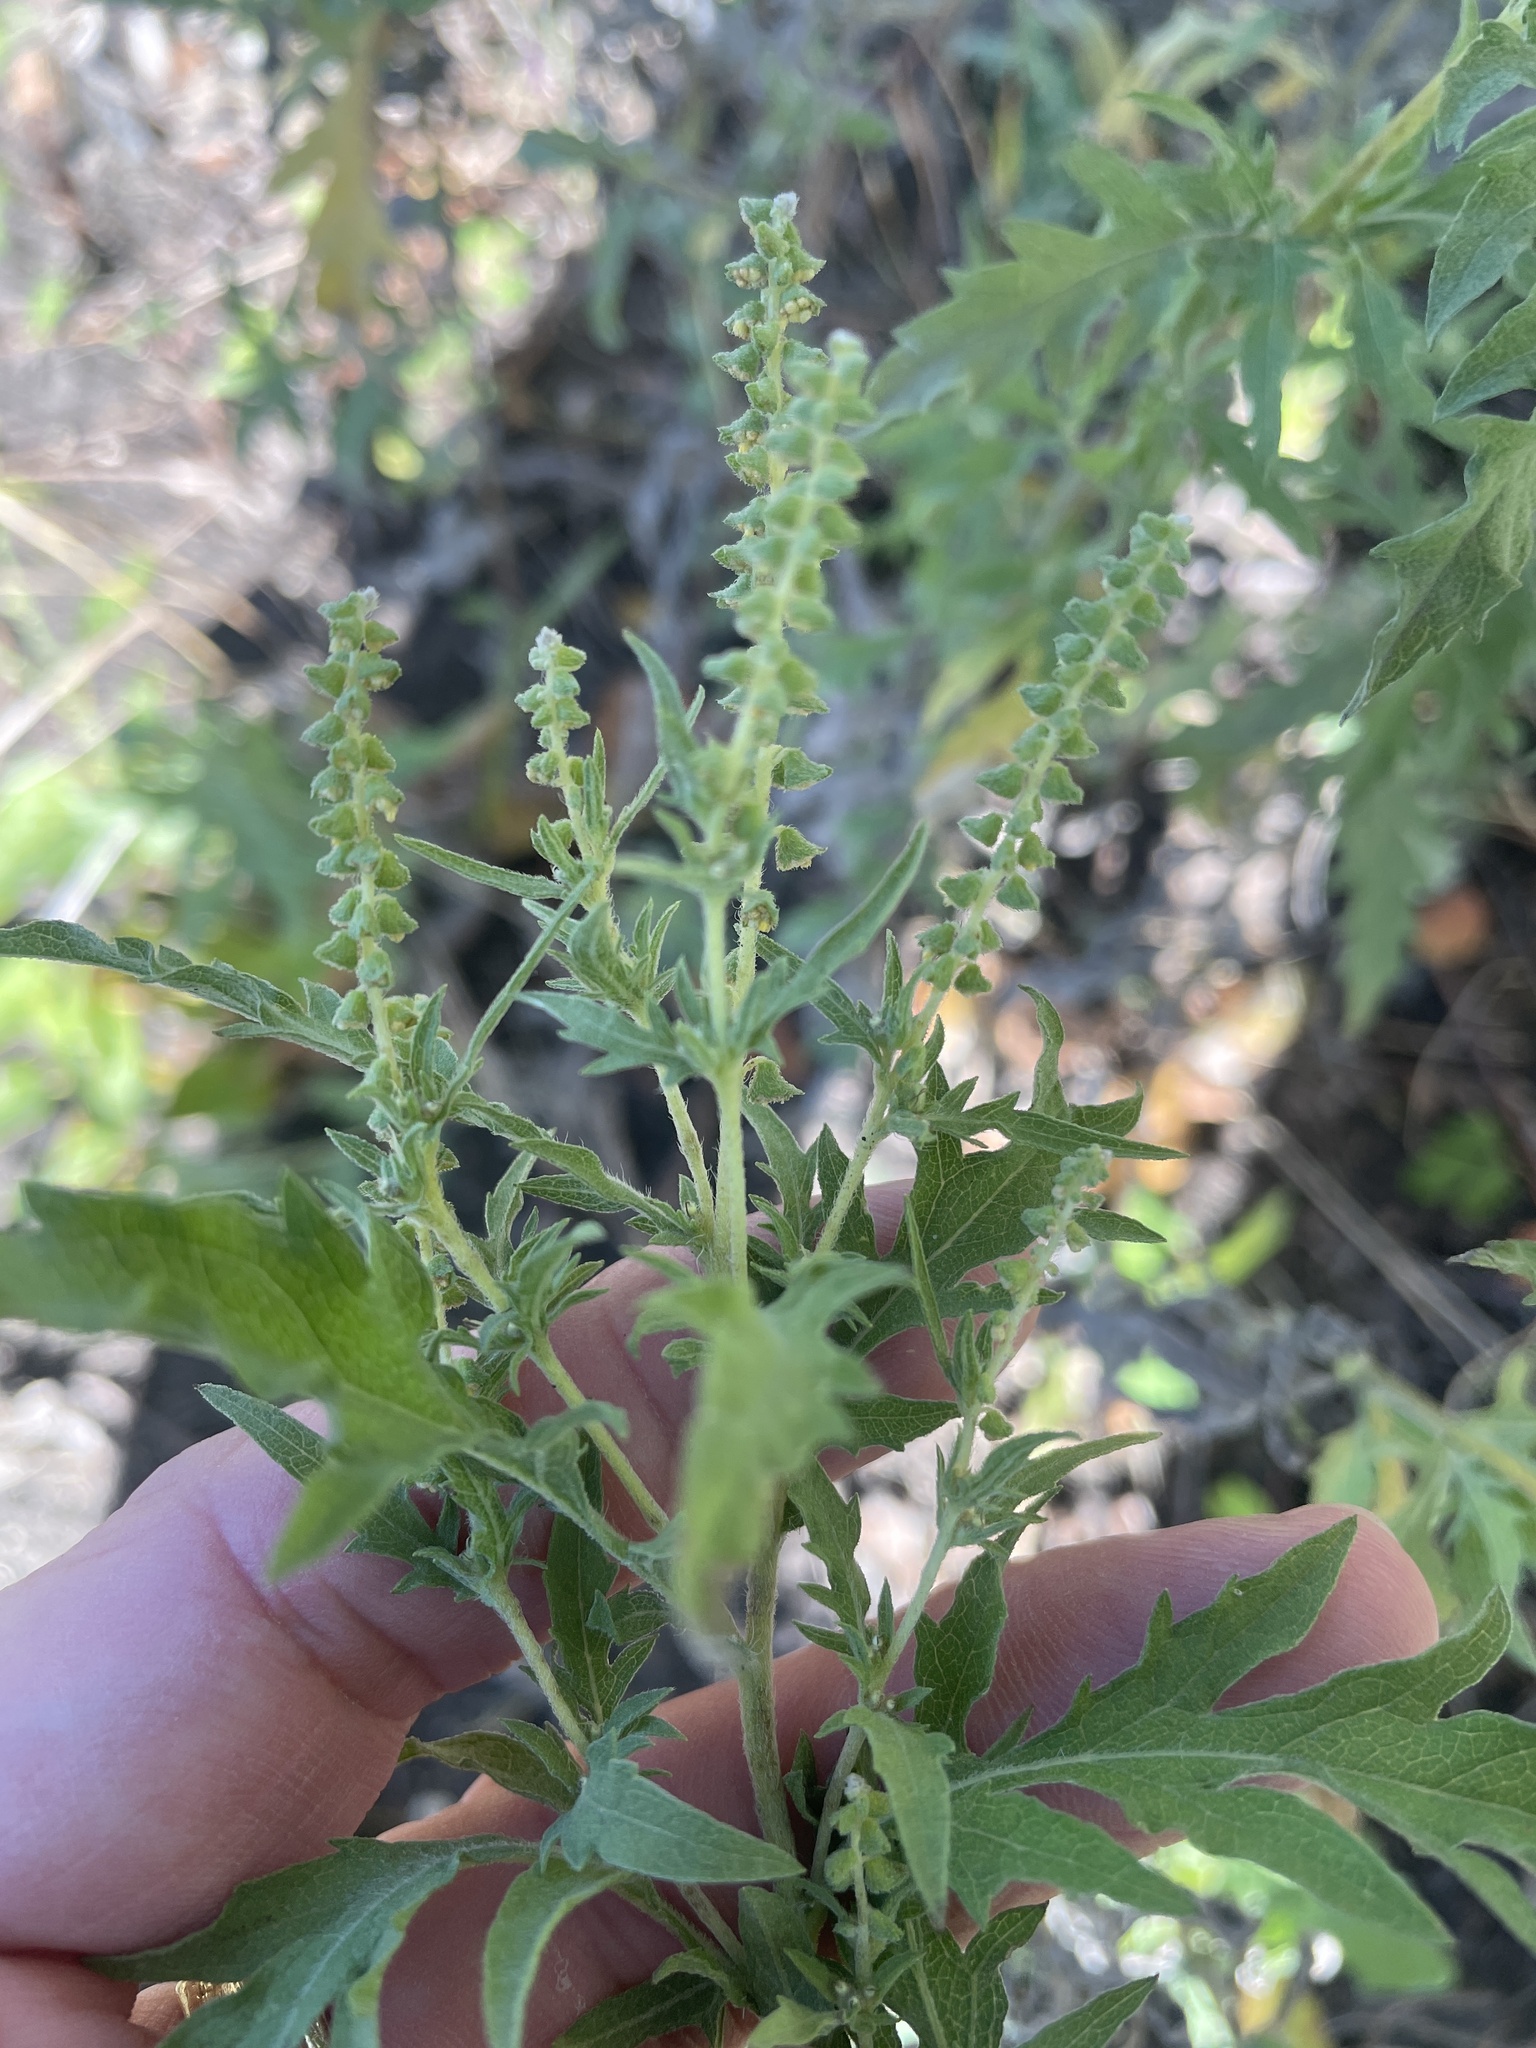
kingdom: Plantae
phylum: Tracheophyta
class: Magnoliopsida
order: Asterales
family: Asteraceae
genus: Ambrosia
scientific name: Ambrosia psilostachya
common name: Perennial ragweed
